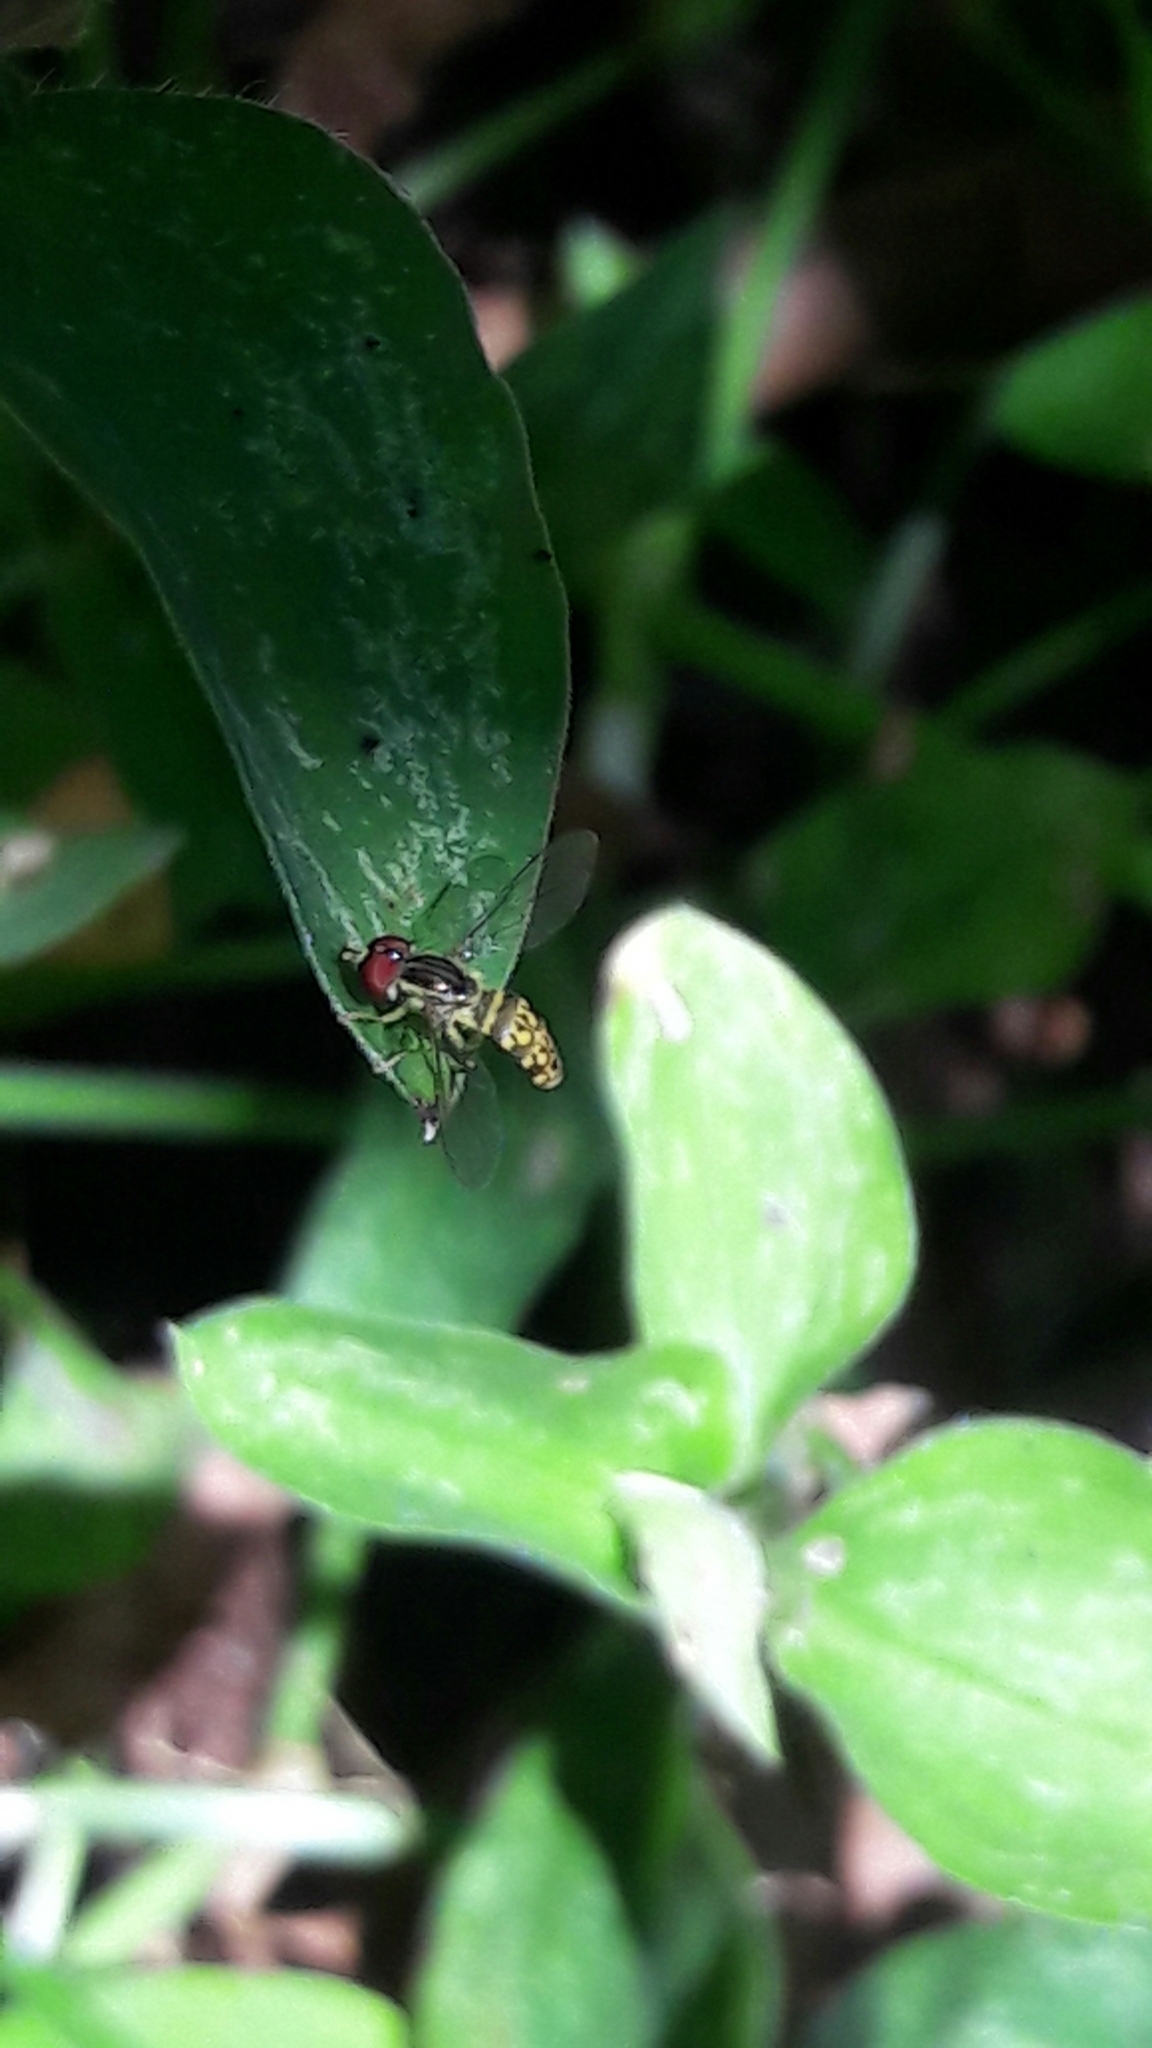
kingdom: Animalia
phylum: Arthropoda
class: Insecta
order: Diptera
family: Syrphidae
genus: Toxomerus
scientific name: Toxomerus
